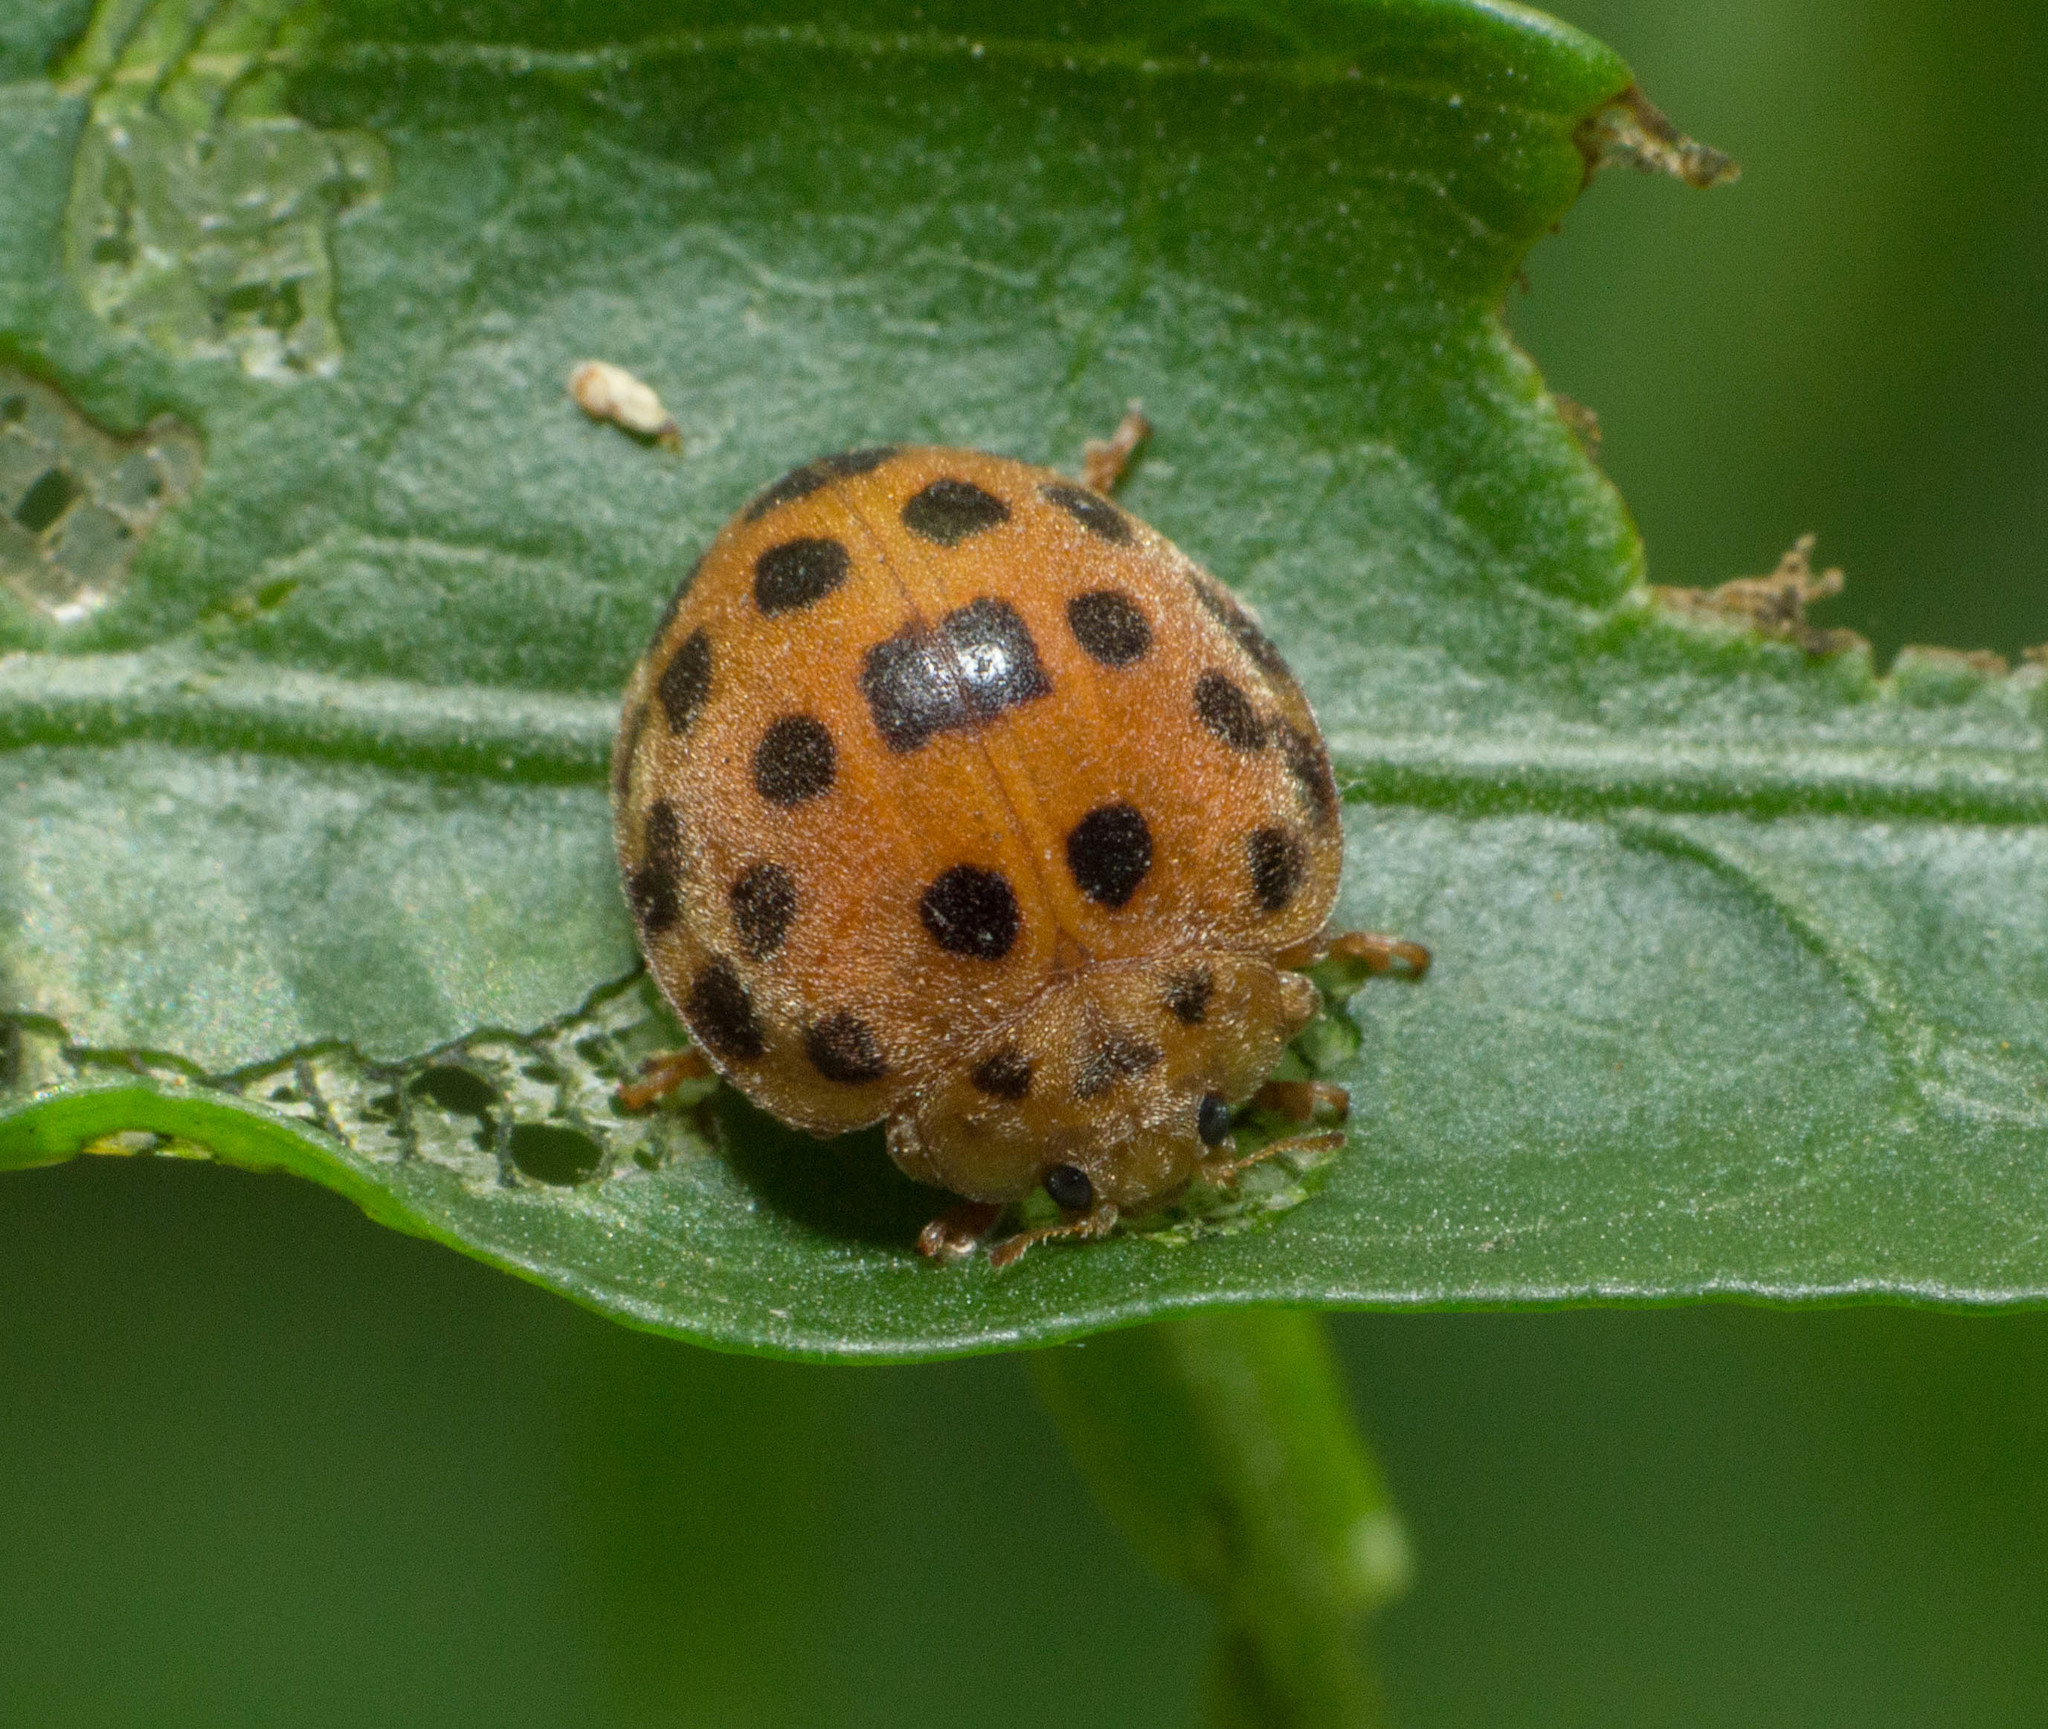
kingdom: Animalia
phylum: Arthropoda
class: Insecta
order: Coleoptera
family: Coccinellidae
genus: Henosepilachna
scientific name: Henosepilachna vigintioctopunctata
